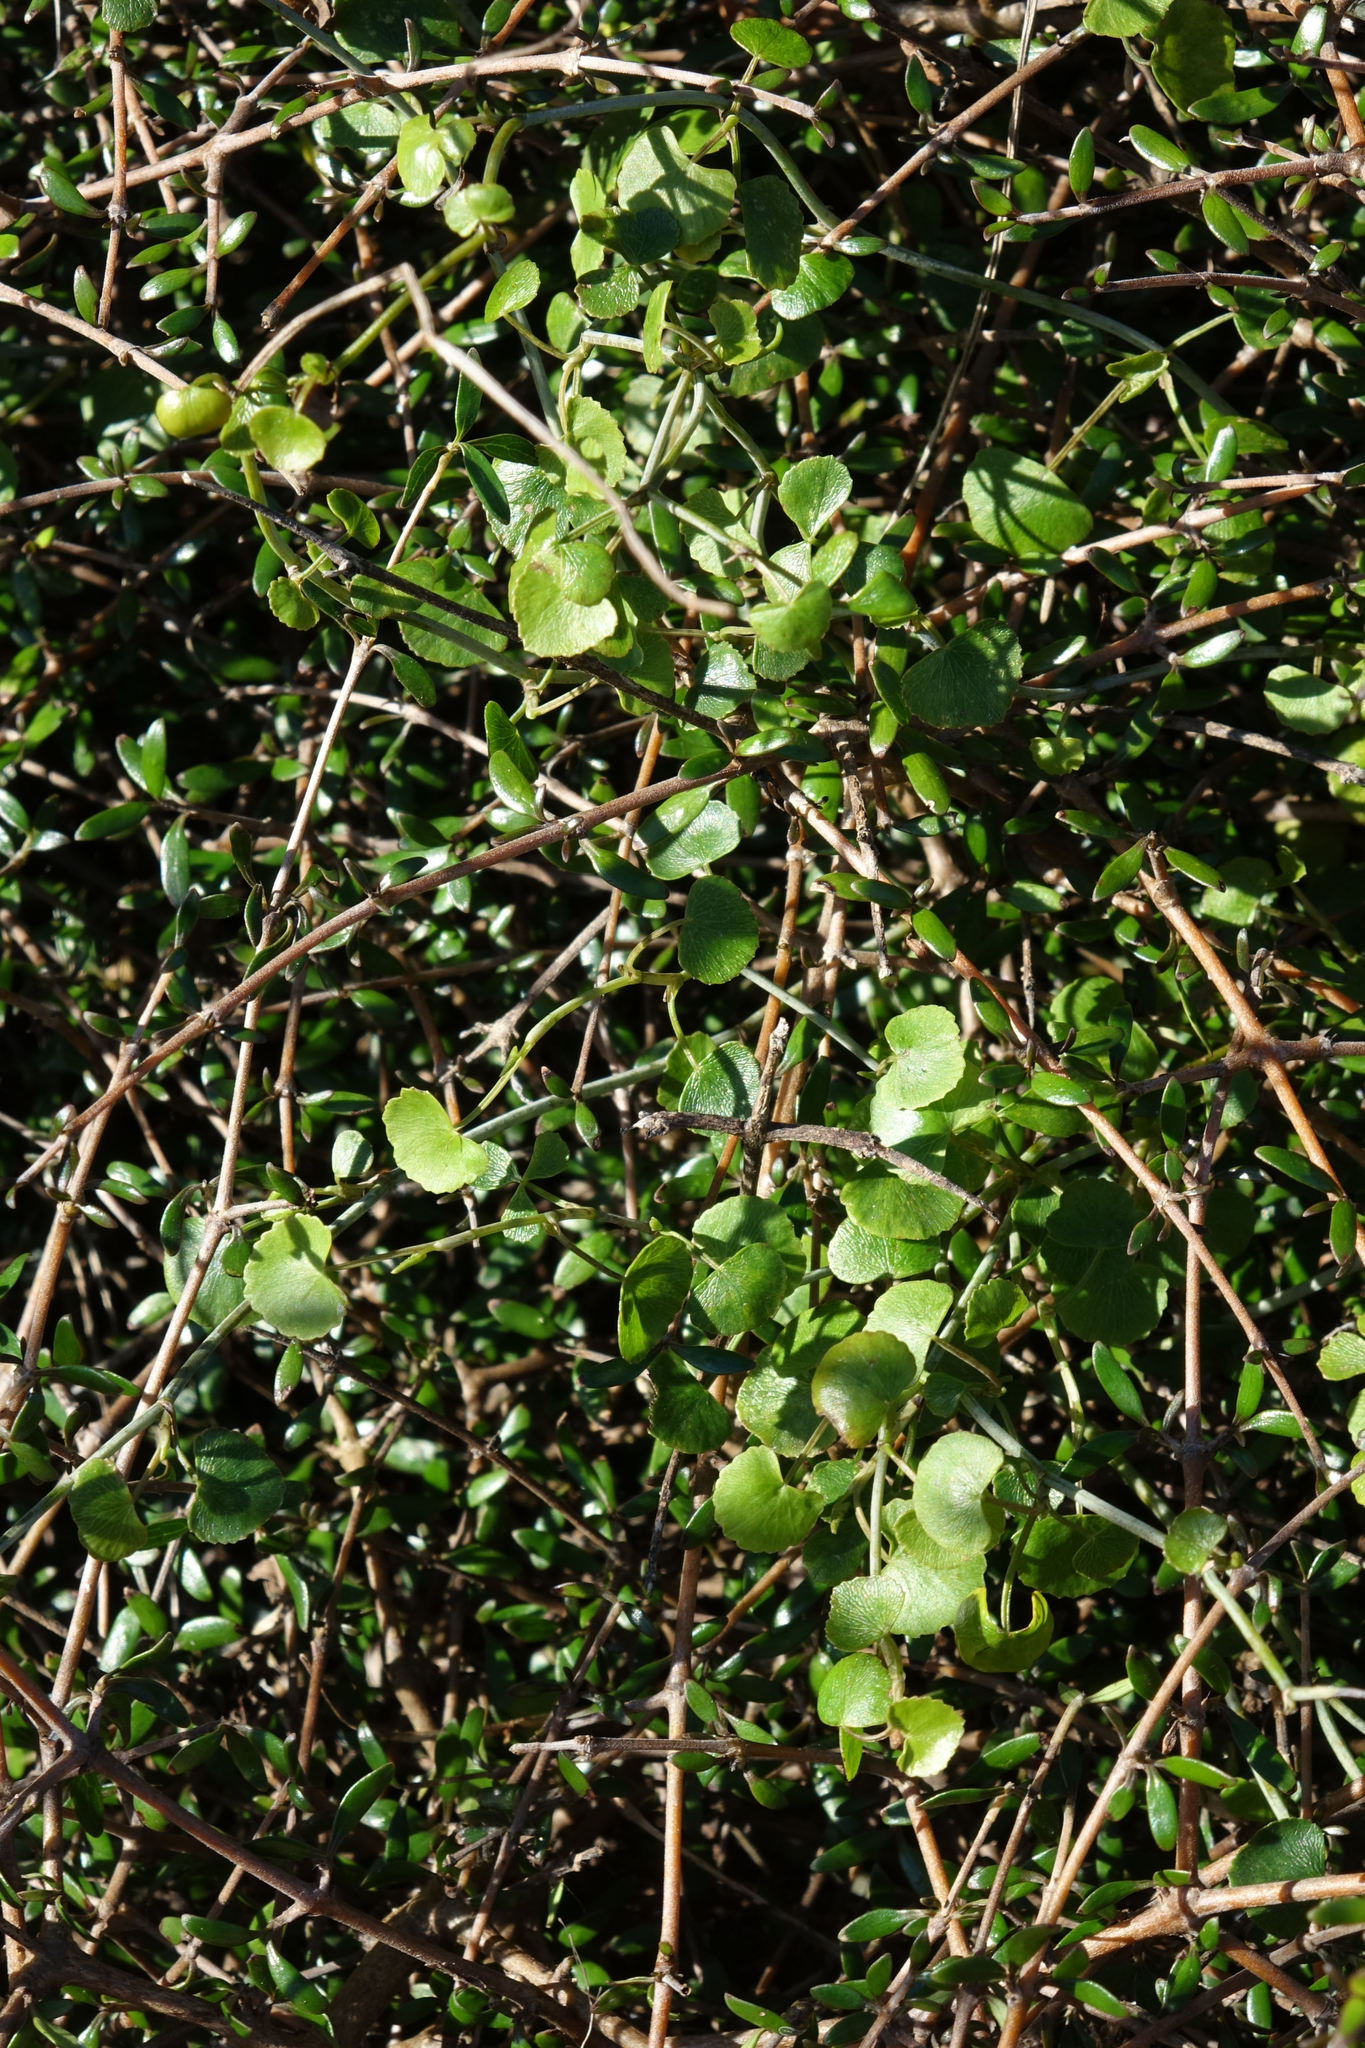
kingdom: Plantae
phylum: Tracheophyta
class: Magnoliopsida
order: Apiales
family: Apiaceae
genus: Scandia
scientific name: Scandia geniculata
